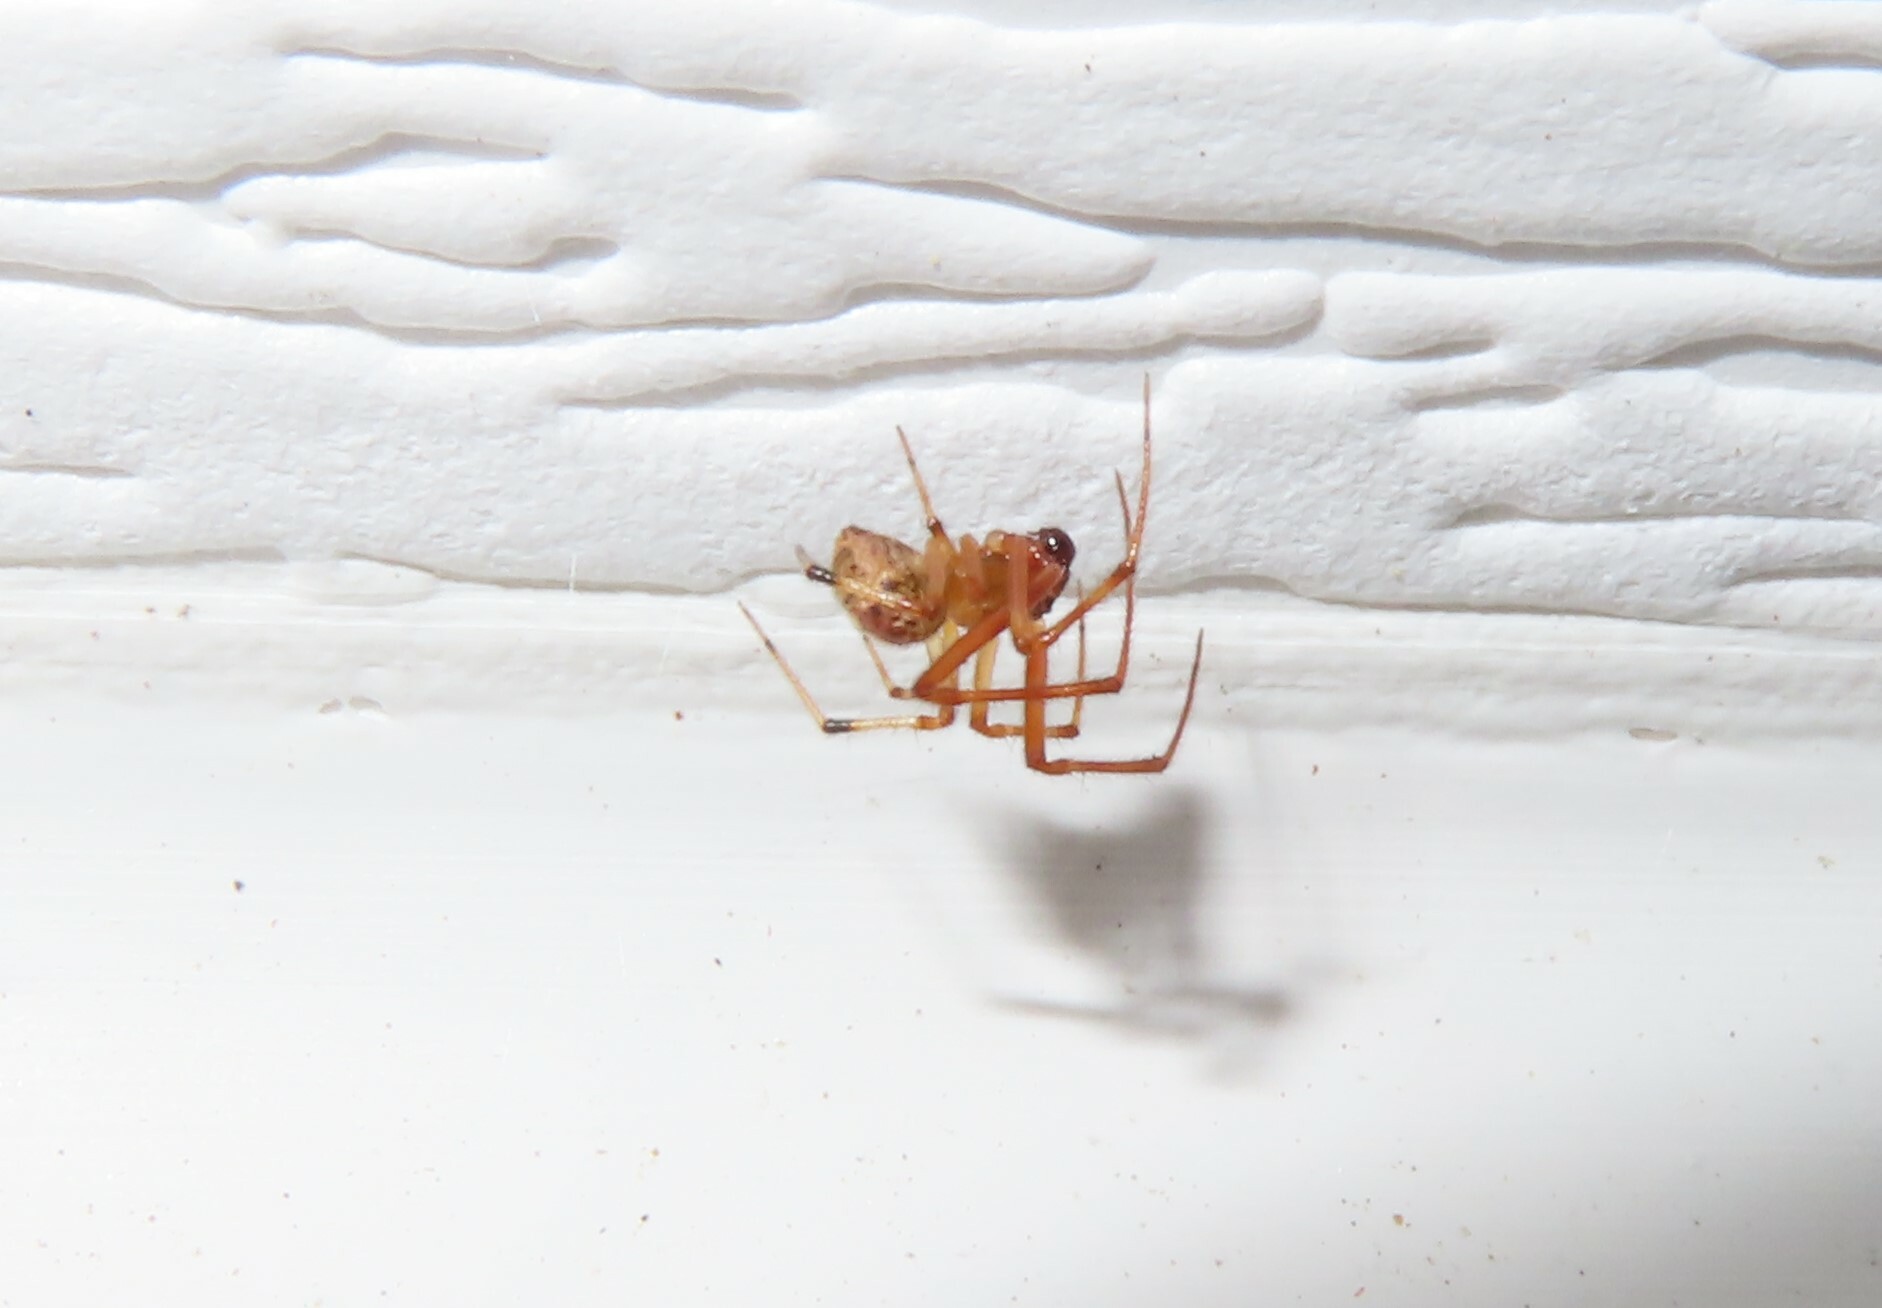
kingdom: Animalia
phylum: Arthropoda
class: Arachnida
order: Araneae
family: Theridiidae
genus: Parasteatoda
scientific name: Parasteatoda tepidariorum
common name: Common house spider
